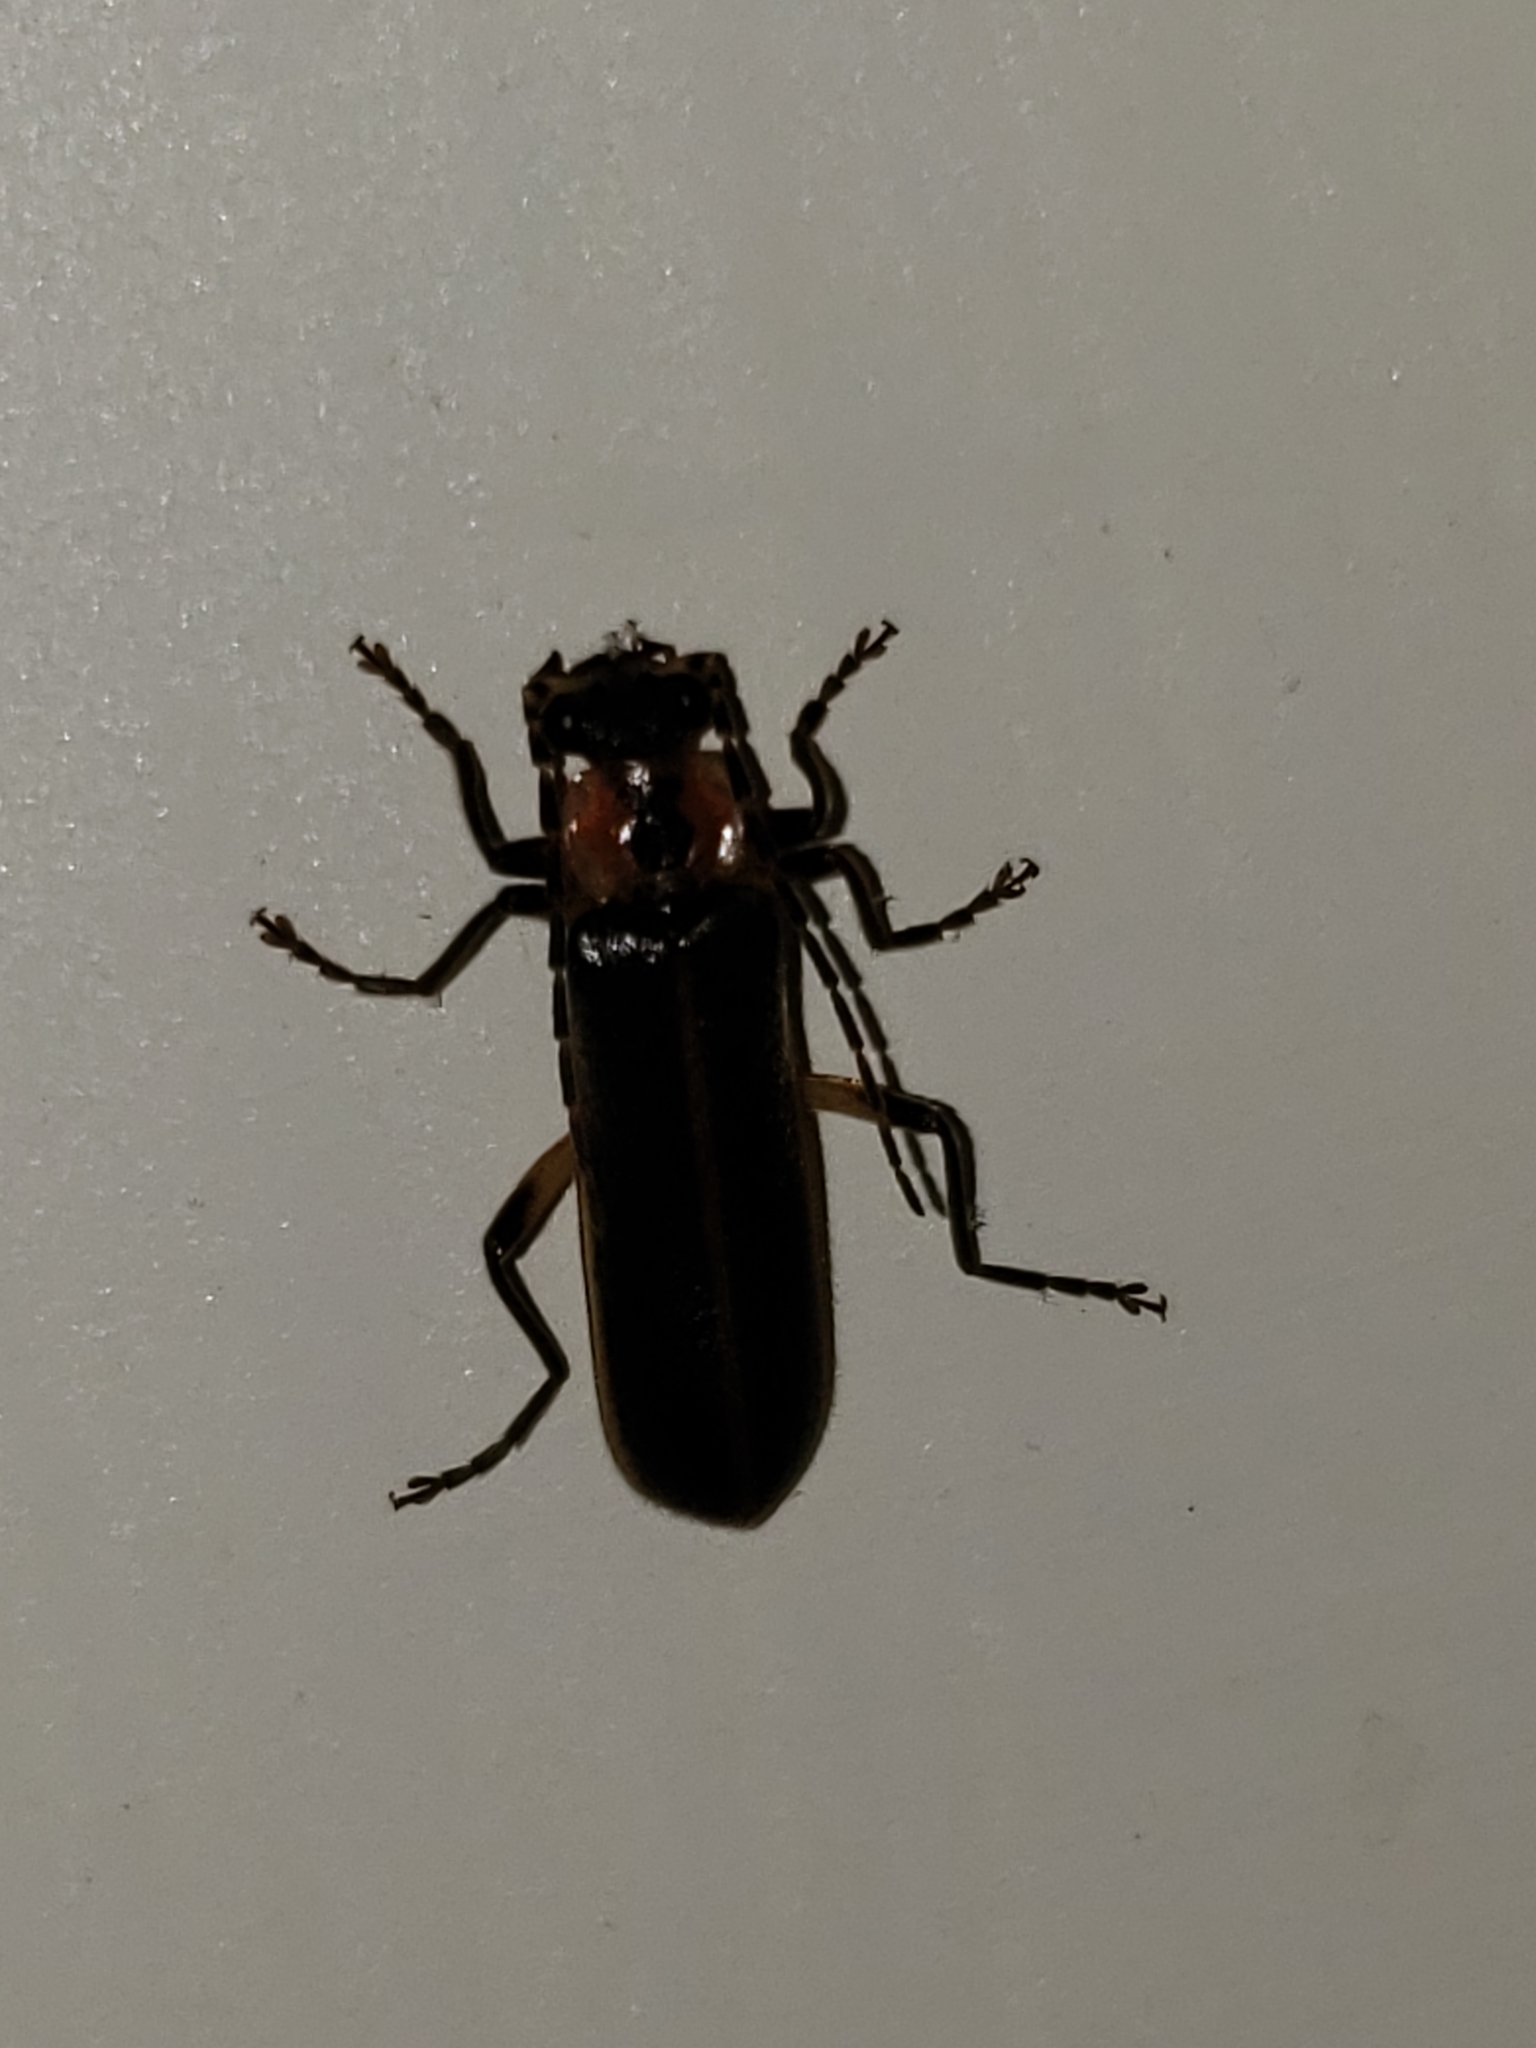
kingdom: Animalia
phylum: Arthropoda
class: Insecta
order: Coleoptera
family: Cantharidae
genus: Podabrus
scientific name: Podabrus basilaris
